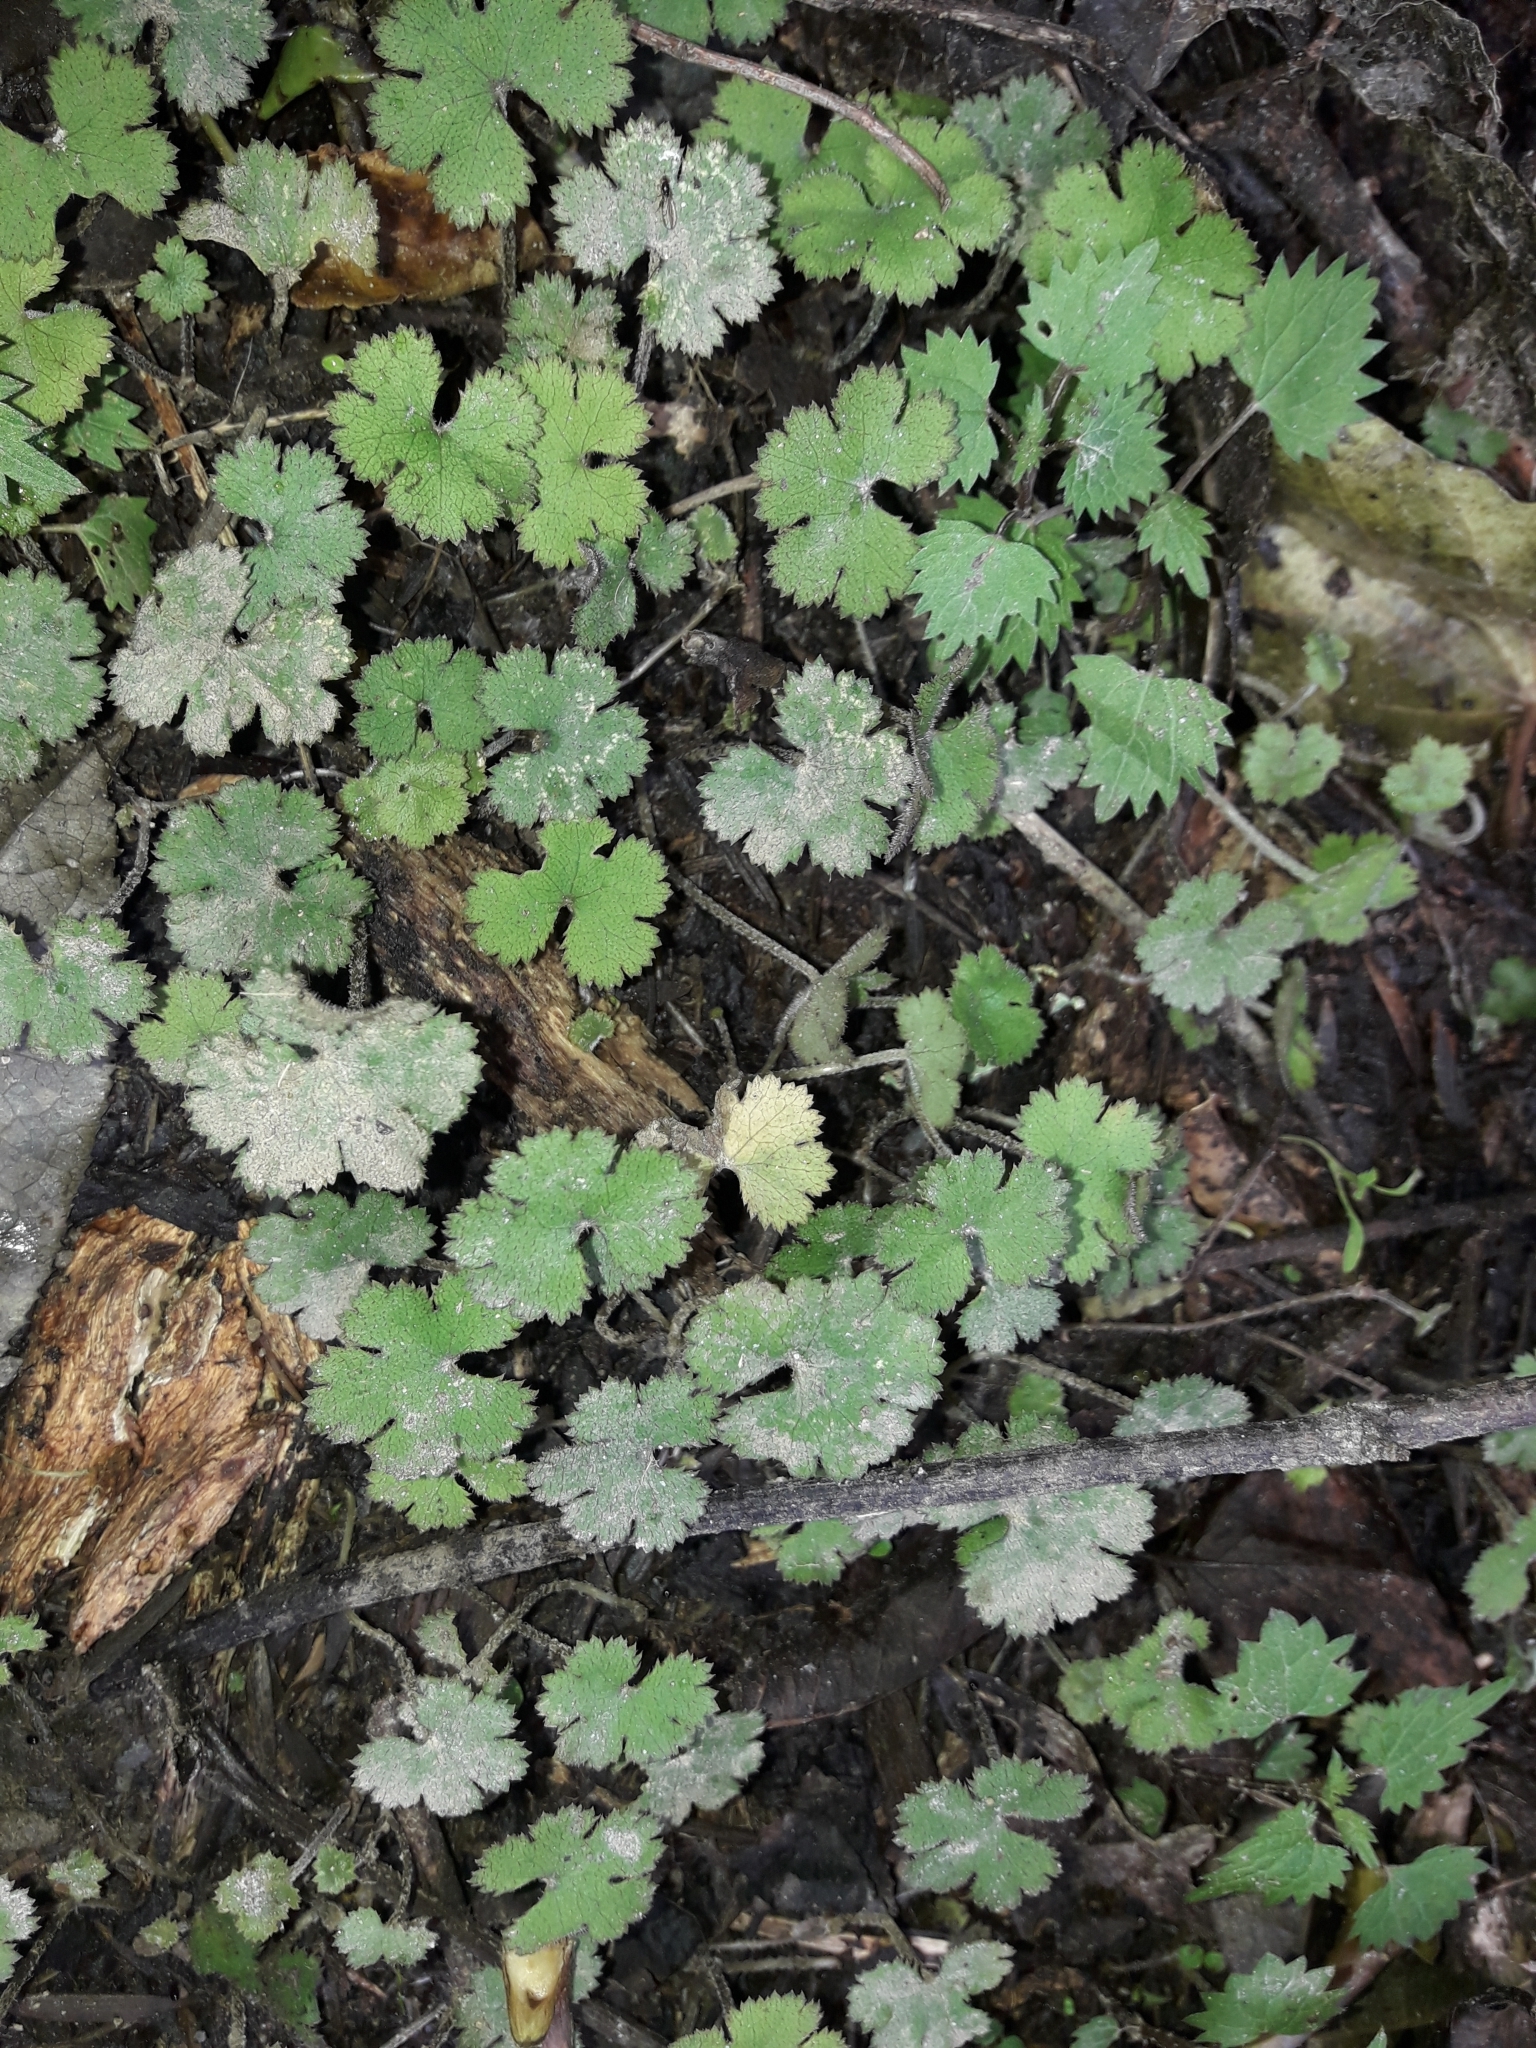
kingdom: Plantae
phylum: Tracheophyta
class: Magnoliopsida
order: Apiales
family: Araliaceae
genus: Hydrocotyle
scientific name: Hydrocotyle elongata
